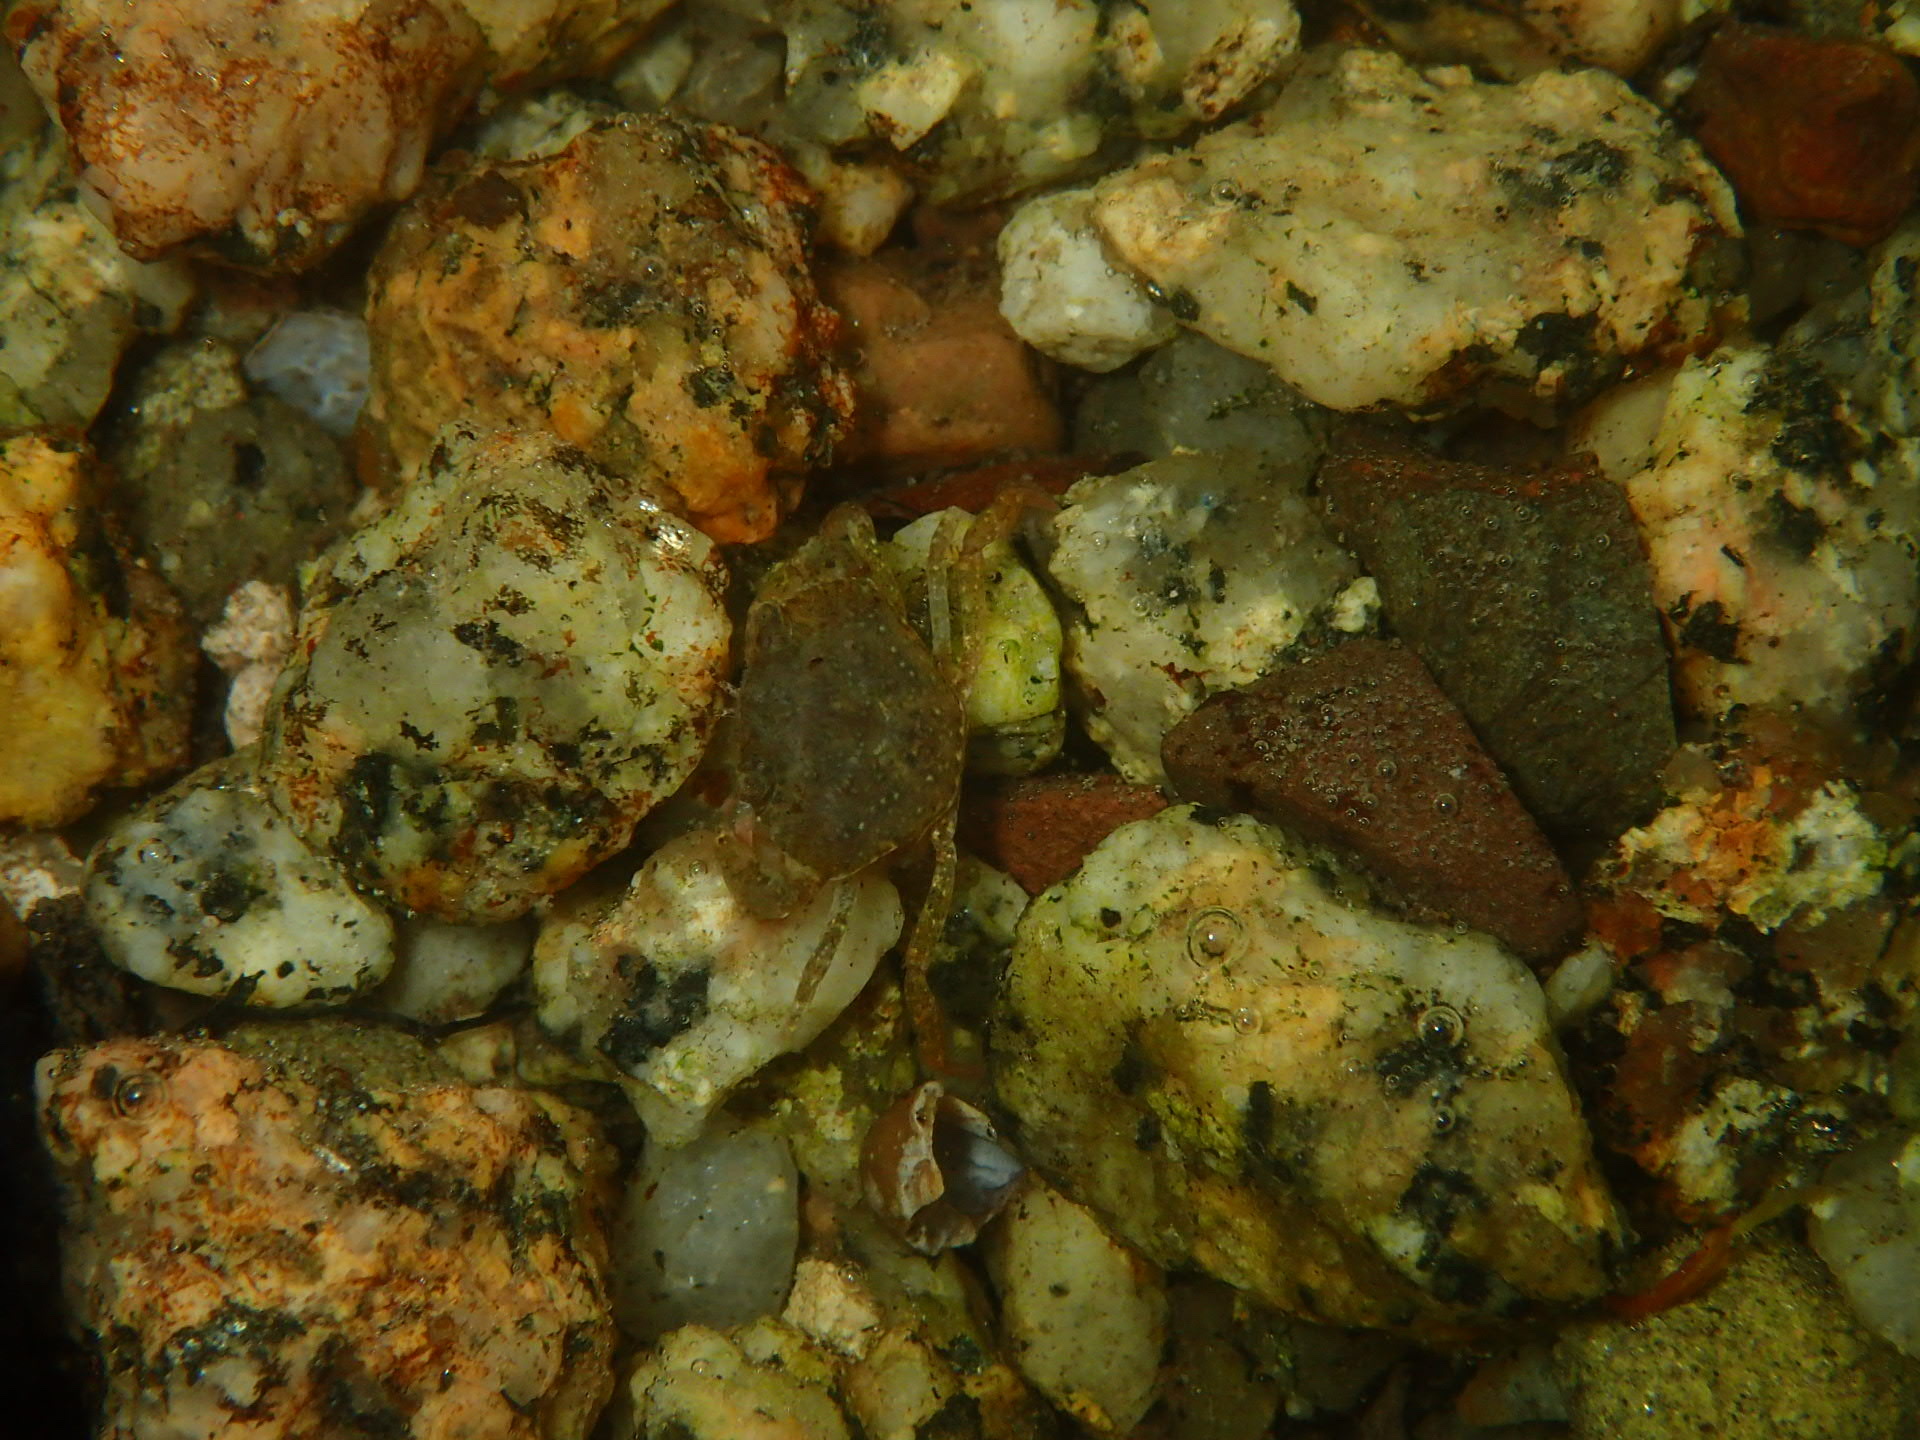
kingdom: Animalia
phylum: Arthropoda
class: Malacostraca
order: Decapoda
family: Carcinidae
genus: Carcinus
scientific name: Carcinus maenas
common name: European green crab
